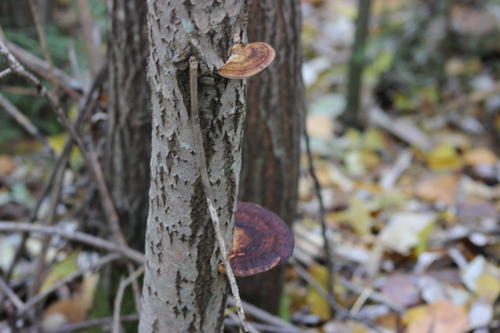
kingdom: Fungi
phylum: Basidiomycota
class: Agaricomycetes
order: Polyporales
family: Polyporaceae
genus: Daedaleopsis
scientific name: Daedaleopsis confragosa
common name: Blushing bracket
